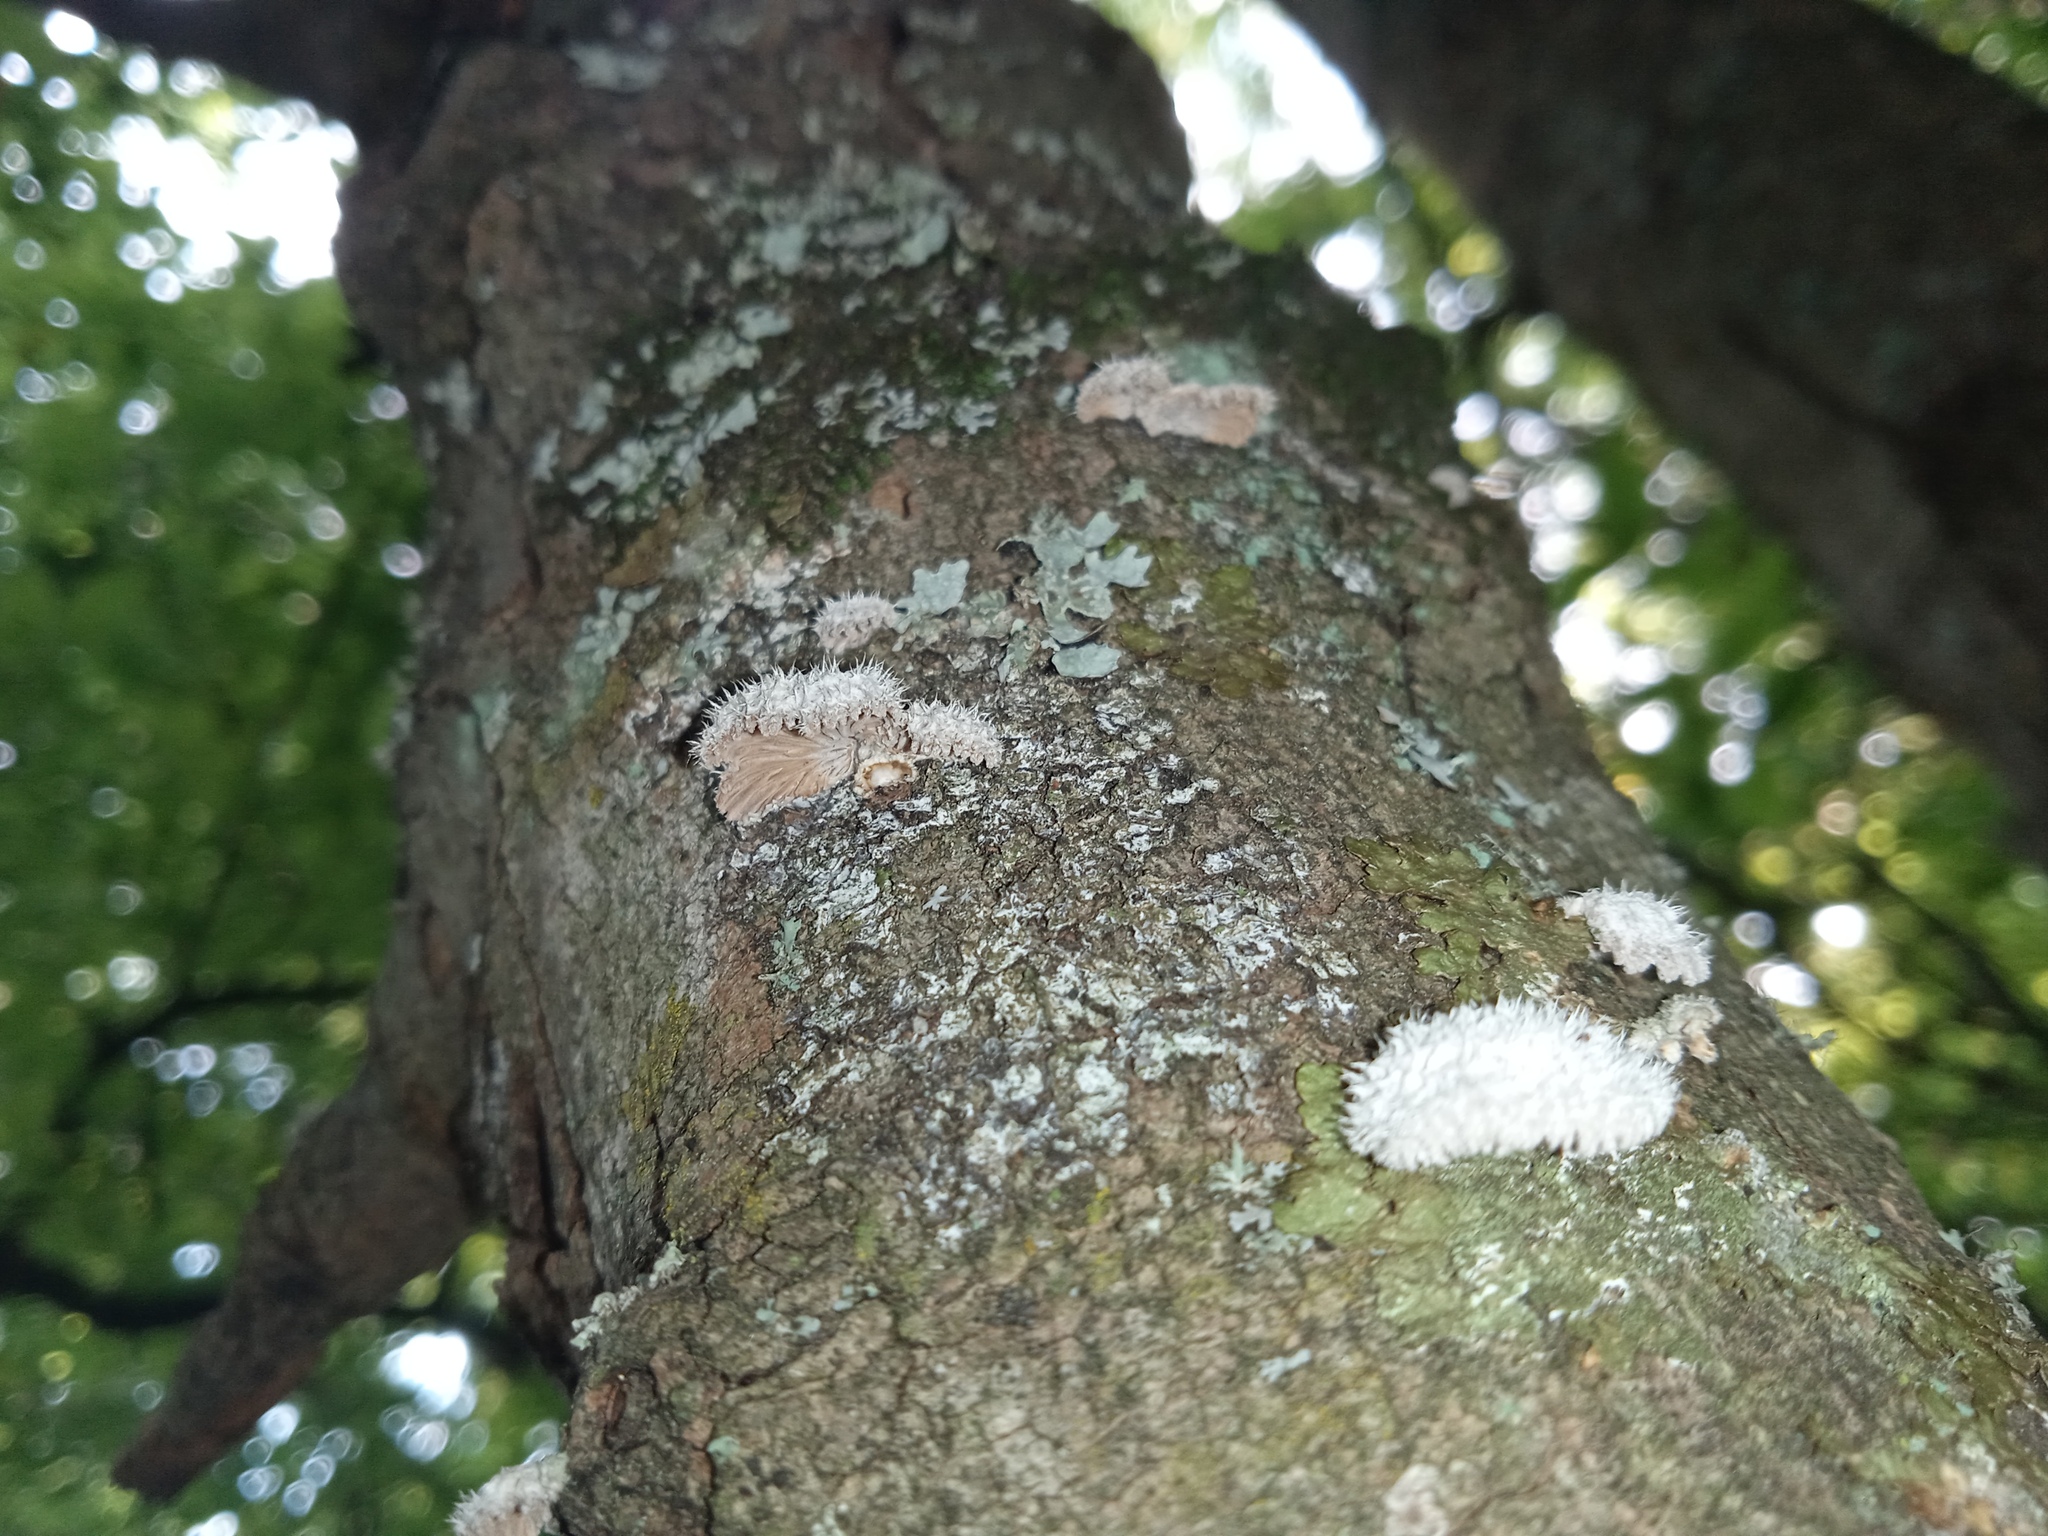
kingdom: Fungi
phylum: Basidiomycota
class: Agaricomycetes
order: Agaricales
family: Schizophyllaceae
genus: Schizophyllum
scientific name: Schizophyllum commune
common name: Common porecrust
